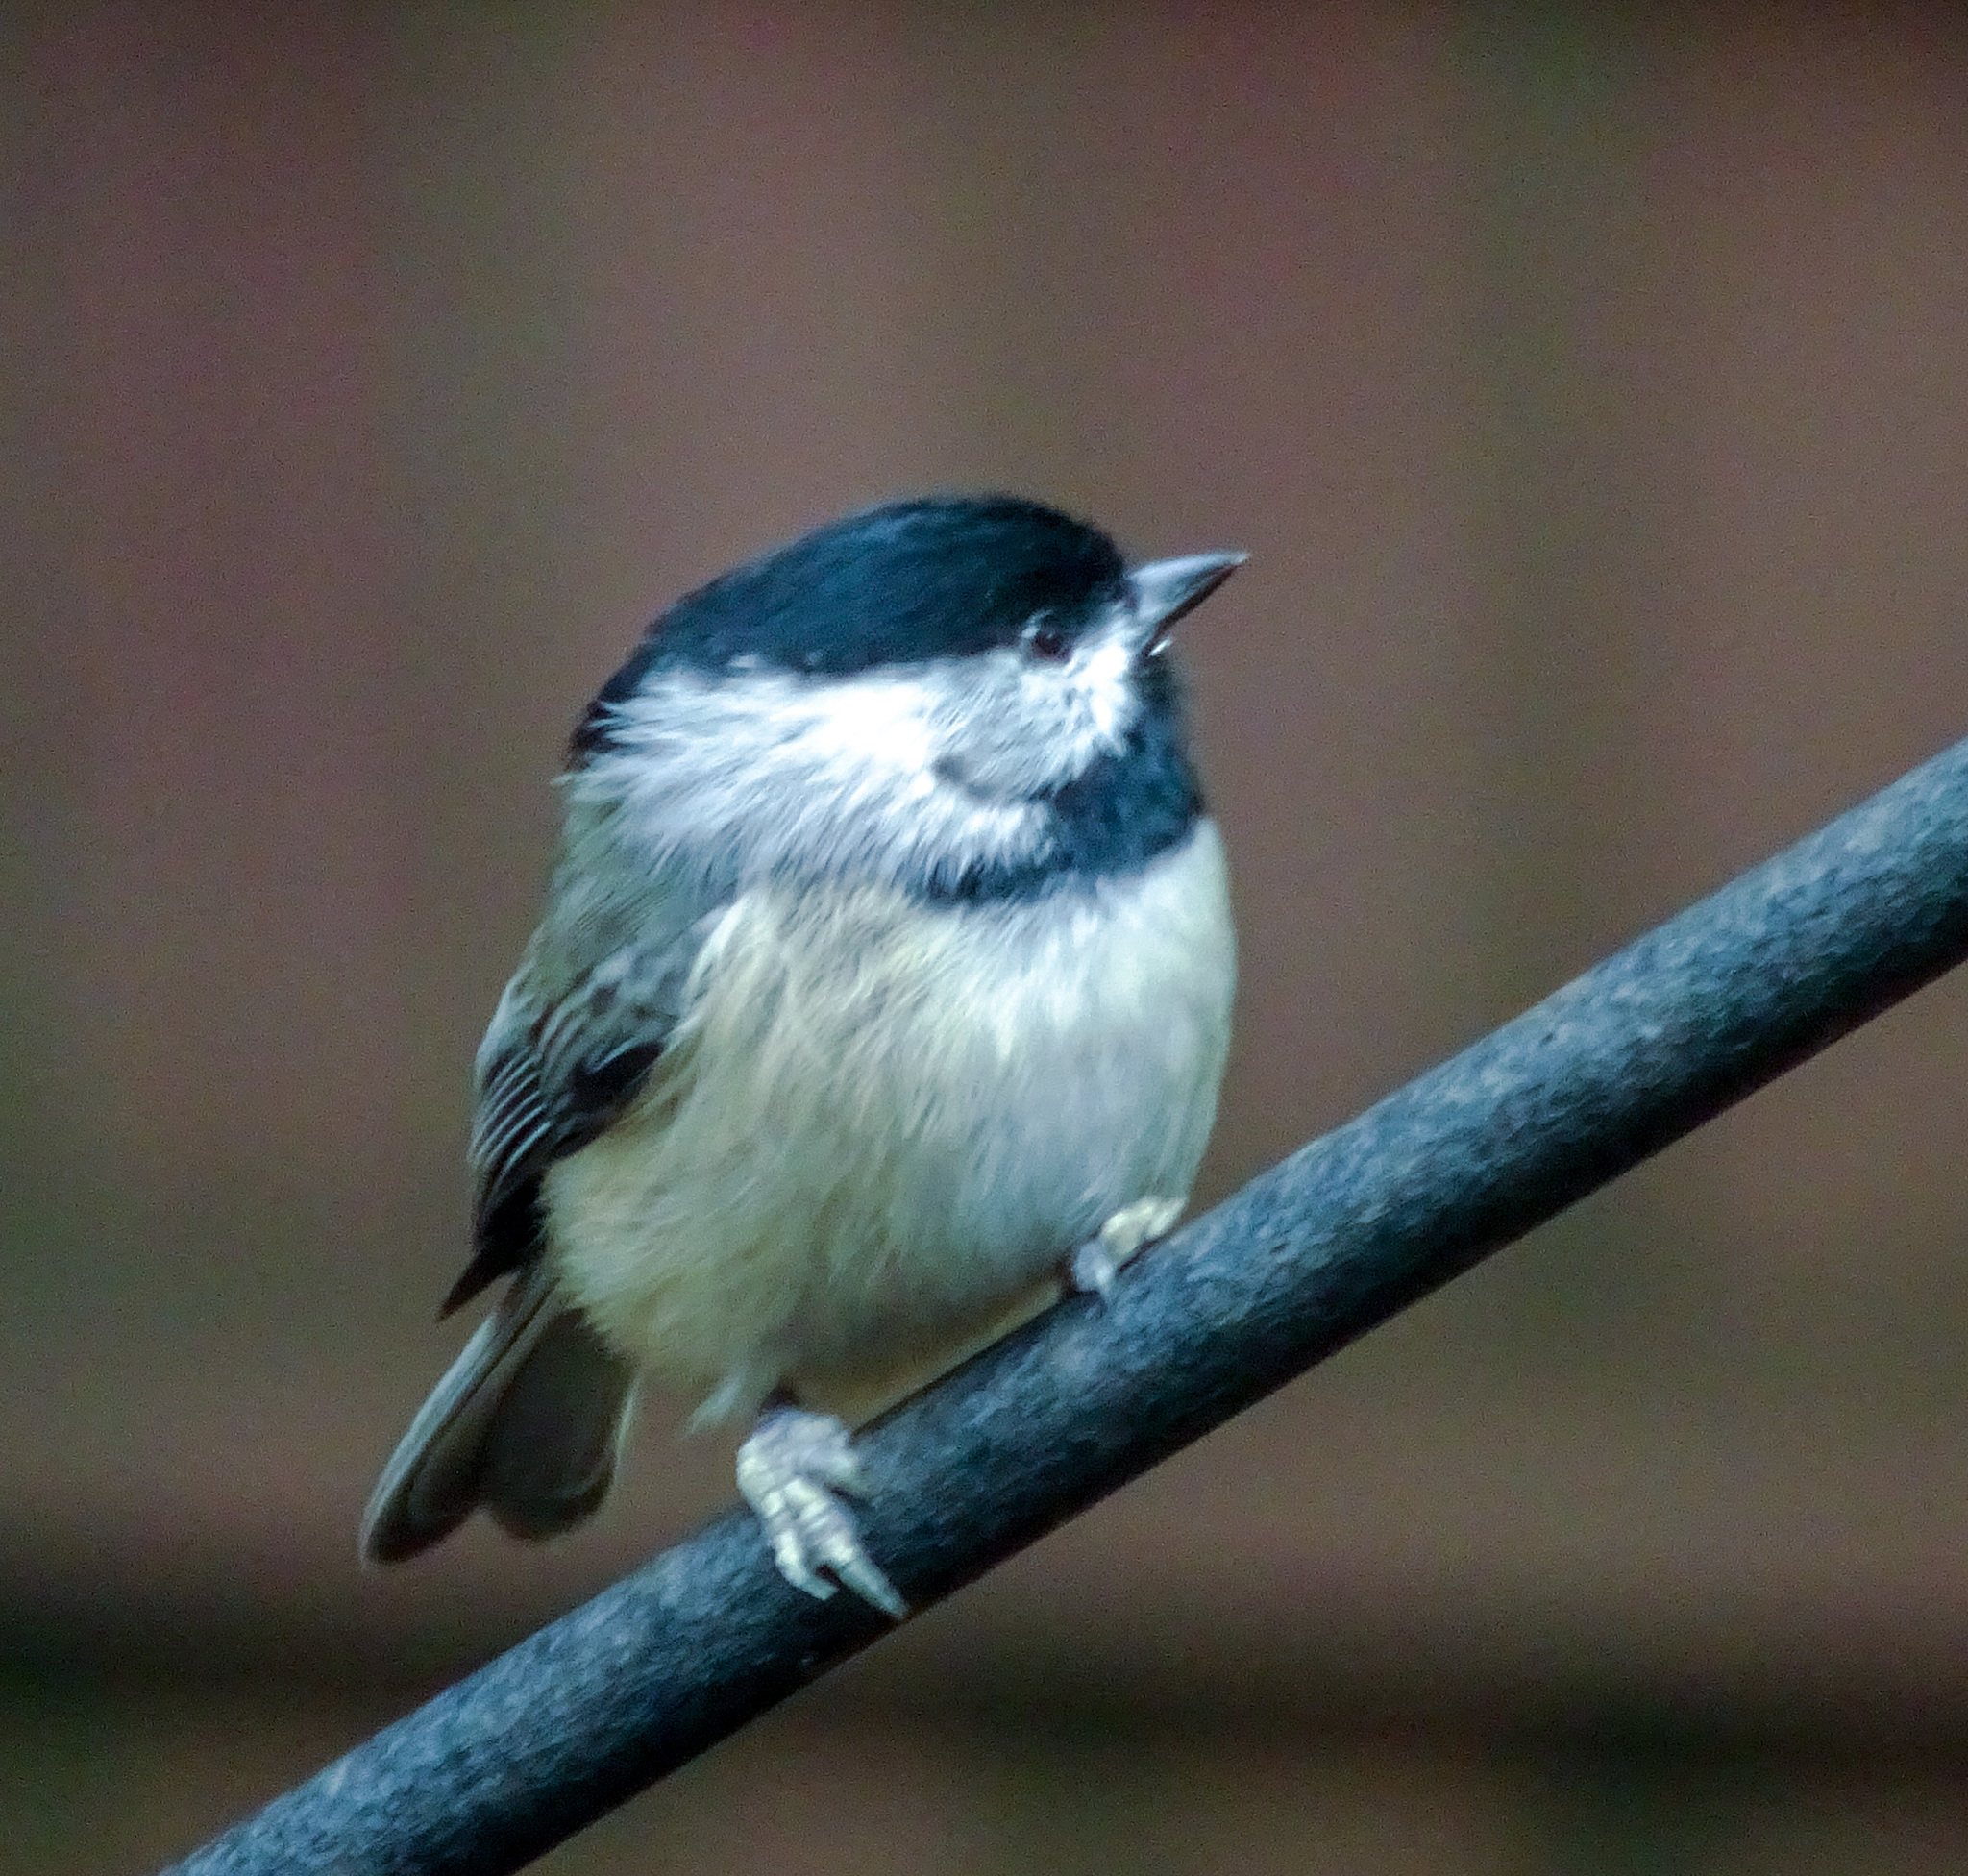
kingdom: Animalia
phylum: Chordata
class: Aves
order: Passeriformes
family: Paridae
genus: Poecile
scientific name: Poecile carolinensis
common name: Carolina chickadee
